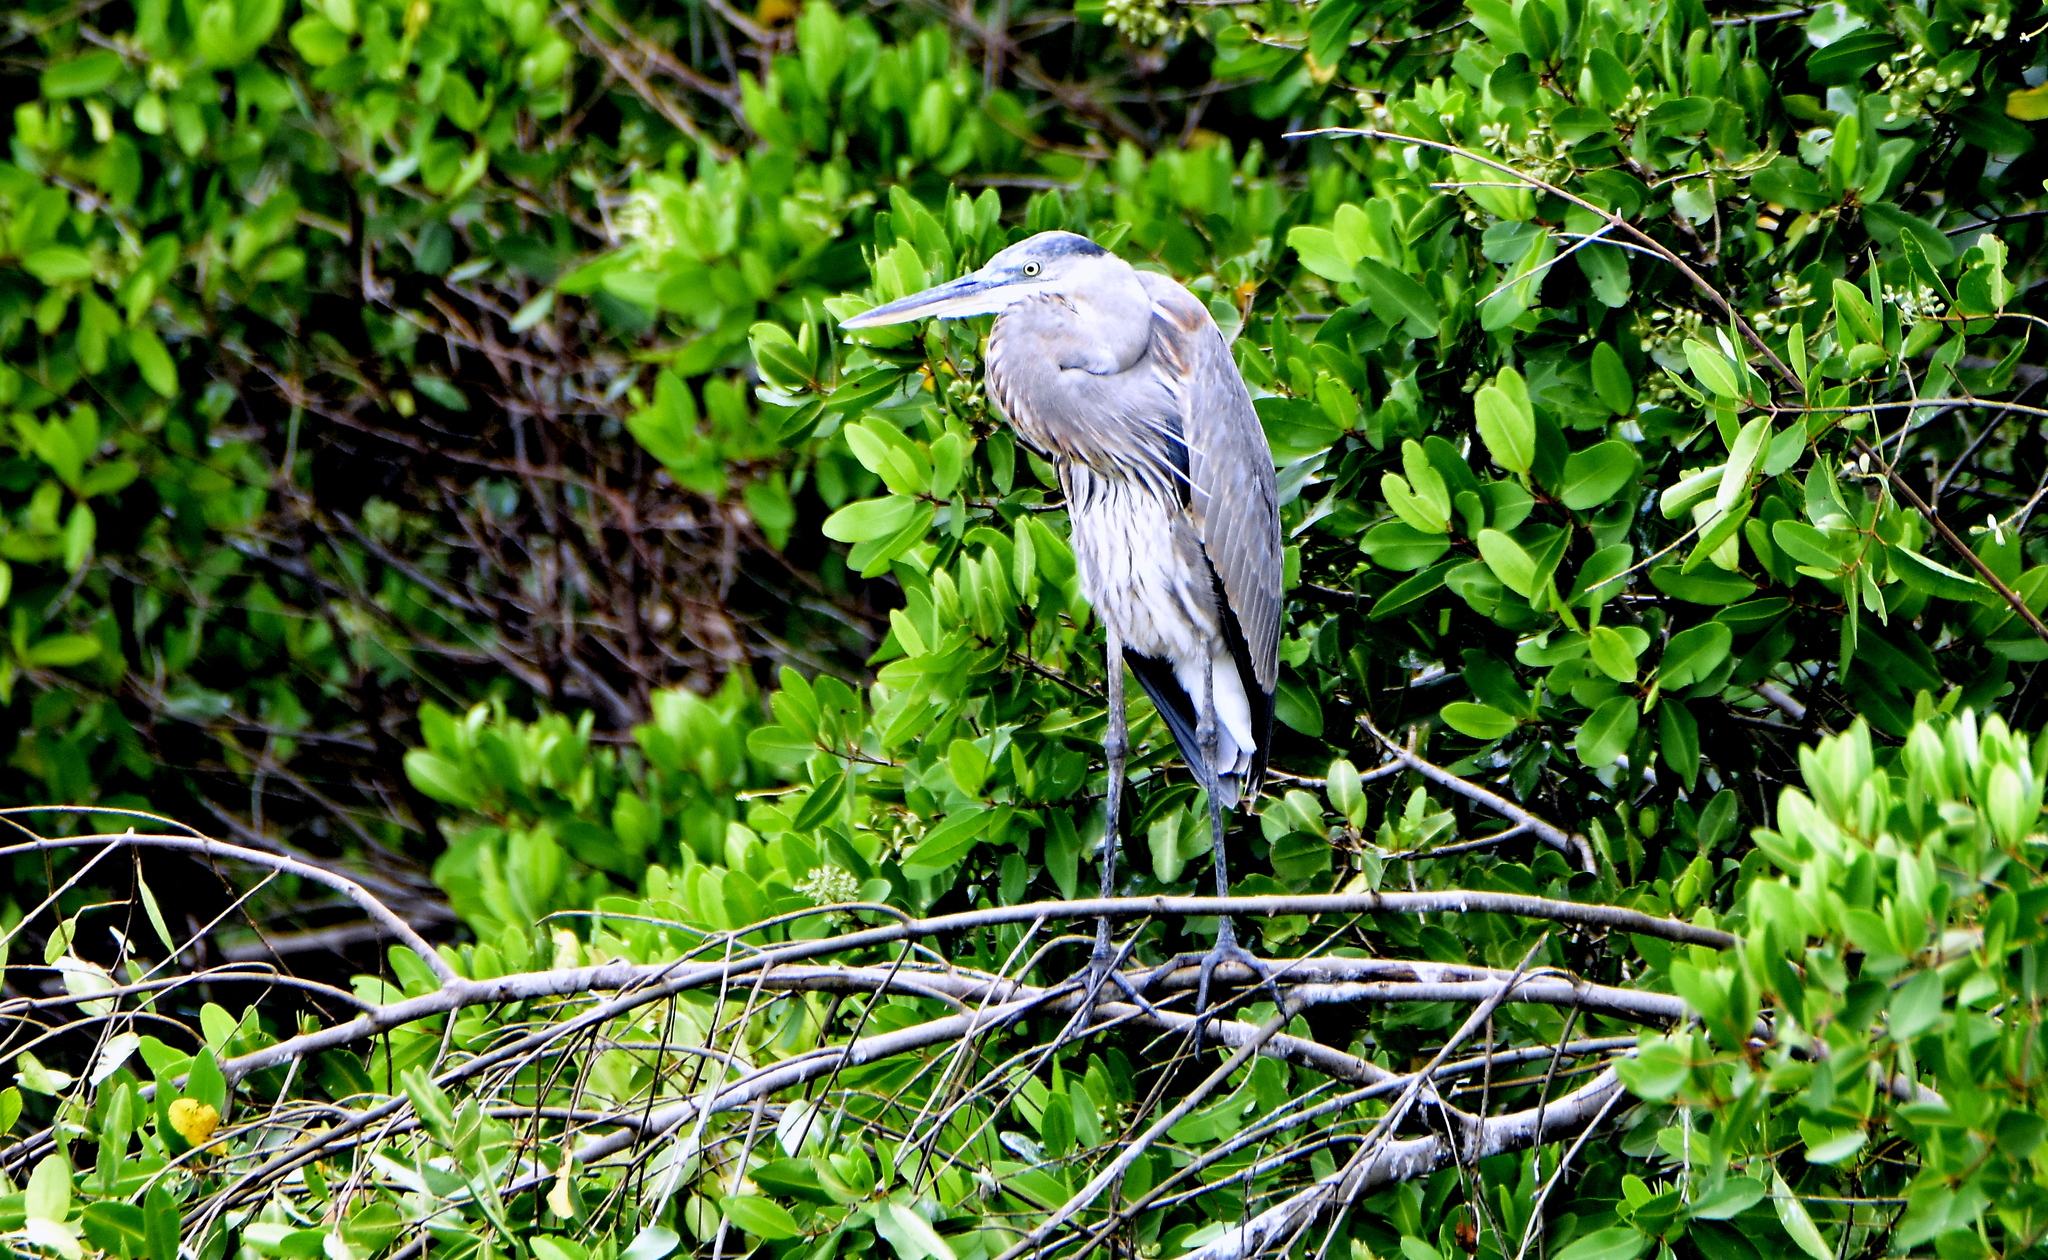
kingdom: Animalia
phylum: Chordata
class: Aves
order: Pelecaniformes
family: Ardeidae
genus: Ardea
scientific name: Ardea herodias
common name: Great blue heron
